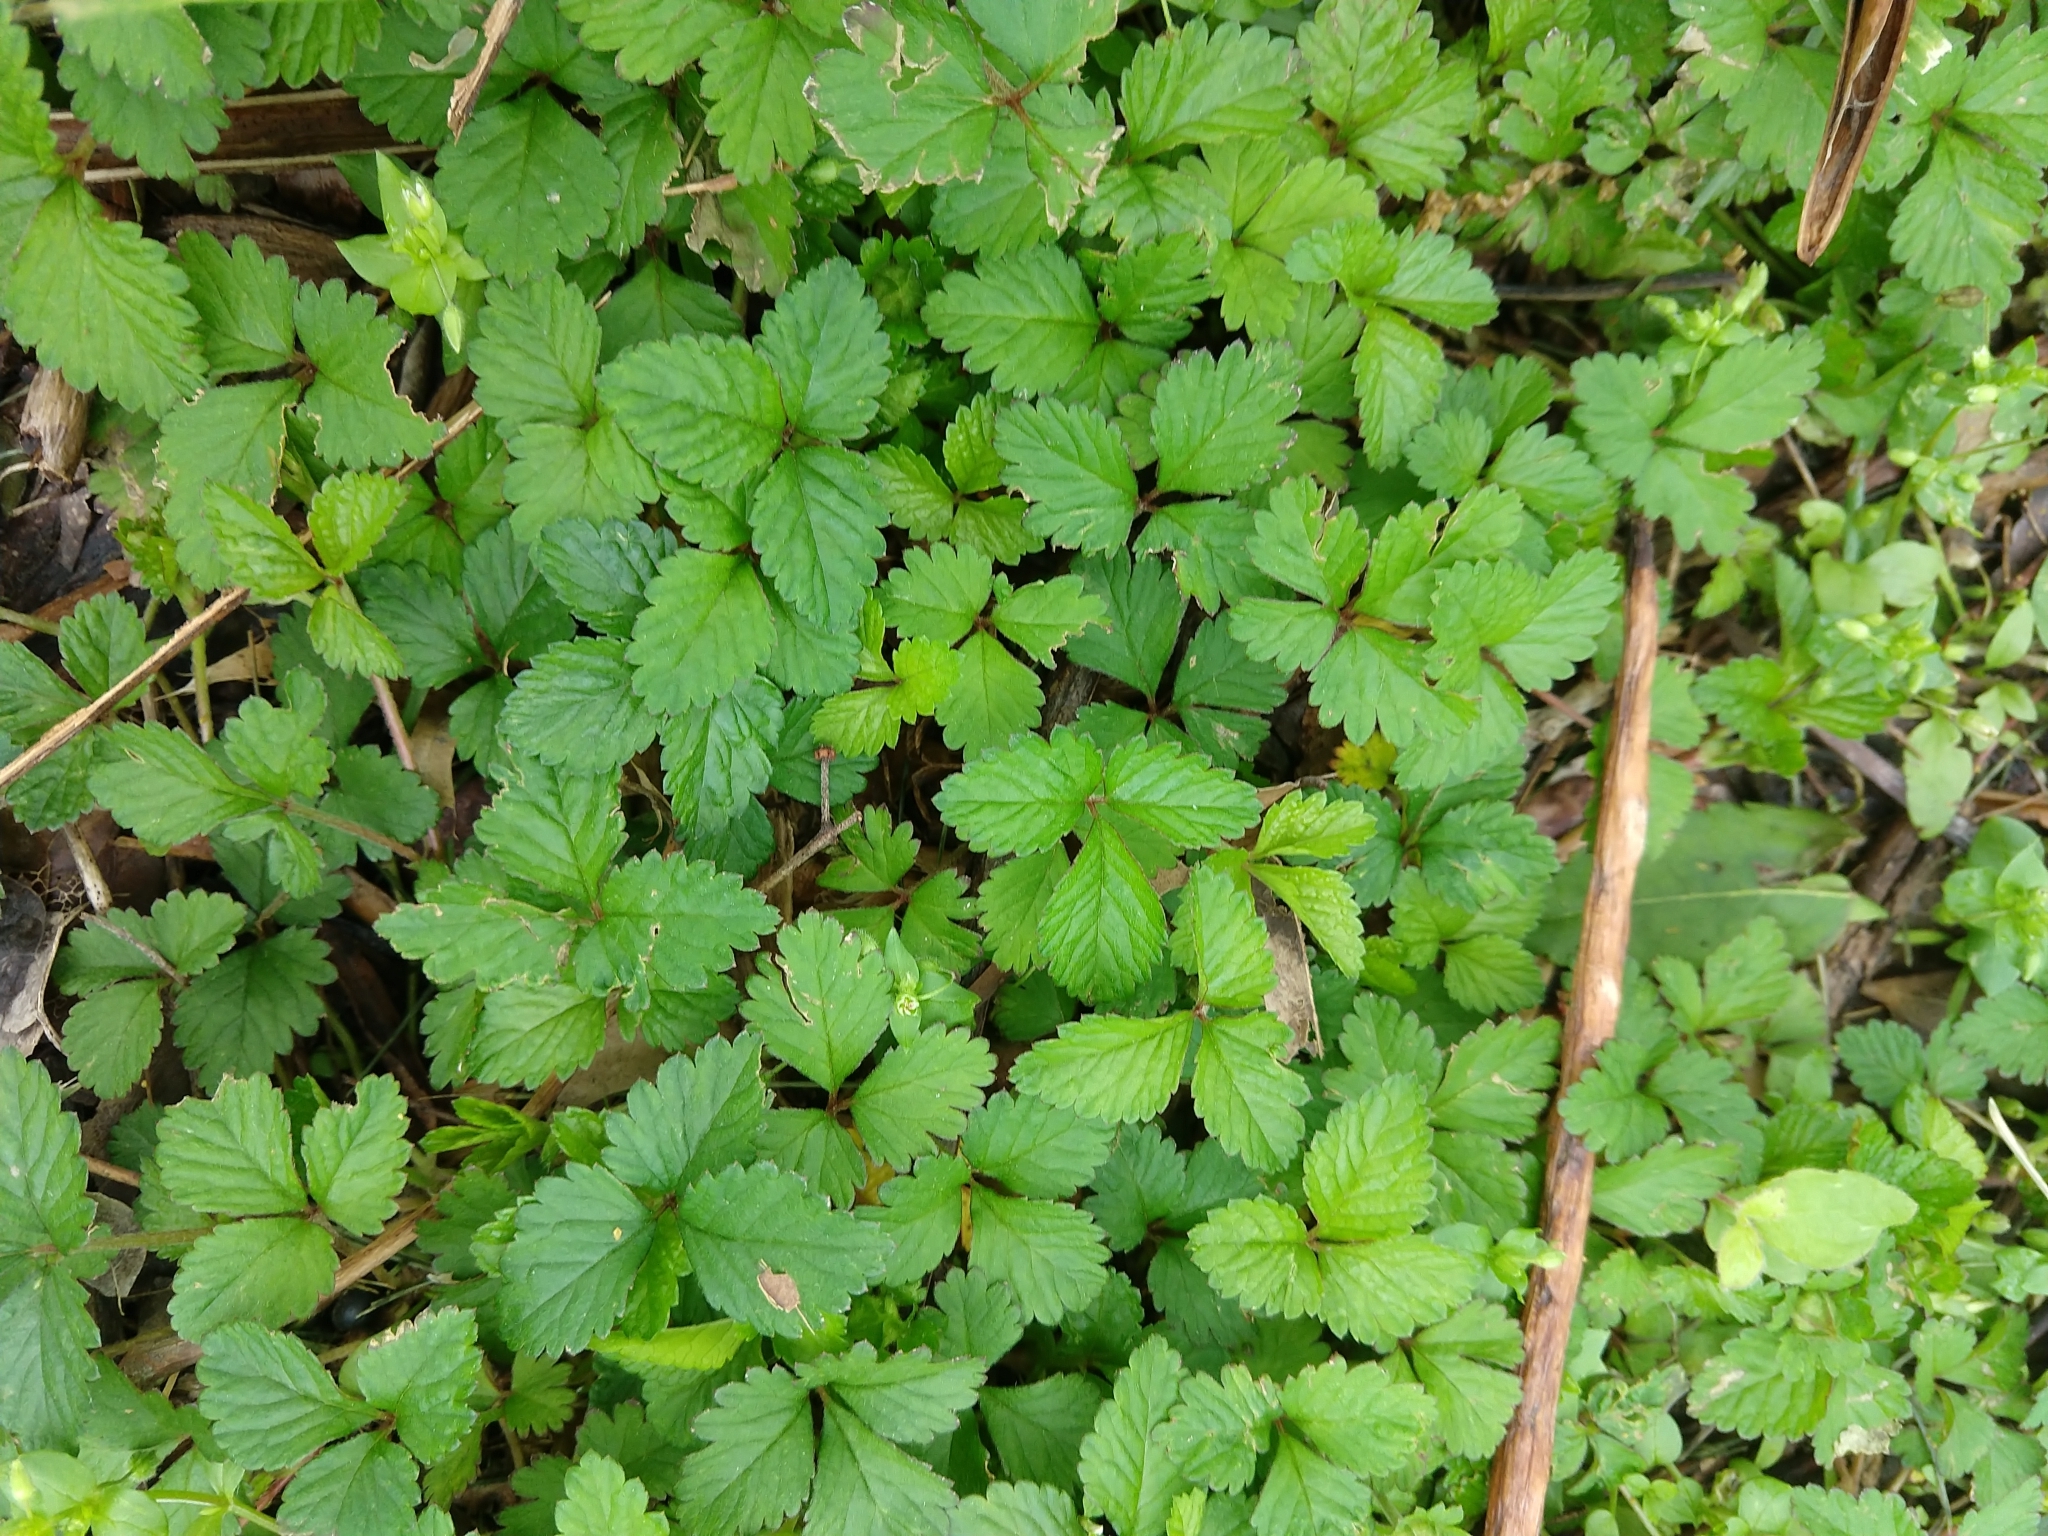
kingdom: Plantae
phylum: Tracheophyta
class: Magnoliopsida
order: Rosales
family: Rosaceae
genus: Potentilla
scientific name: Potentilla indica
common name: Yellow-flowered strawberry
